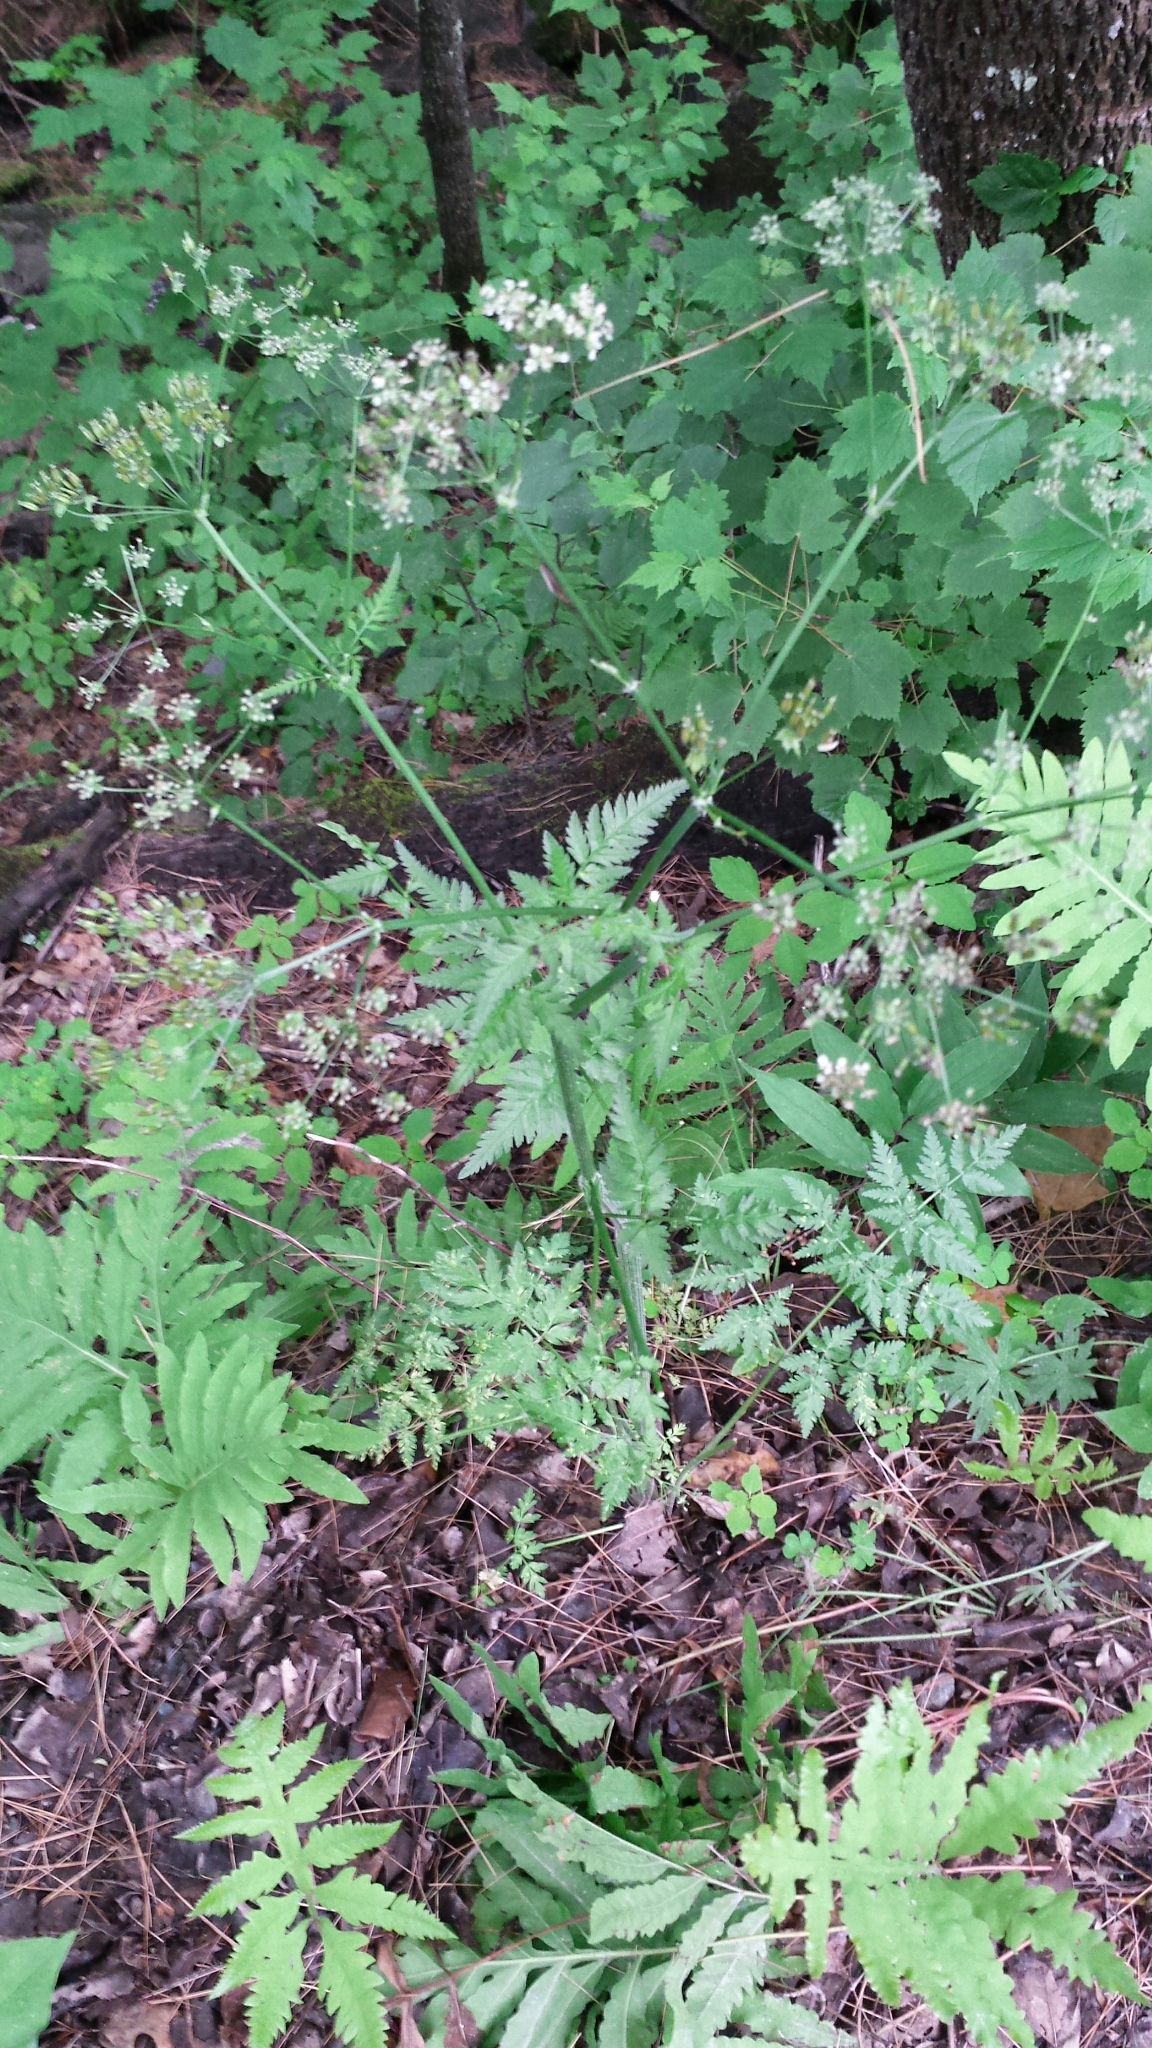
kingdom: Plantae
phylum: Tracheophyta
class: Magnoliopsida
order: Apiales
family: Apiaceae
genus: Anthriscus
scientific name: Anthriscus sylvestris
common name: Cow parsley
